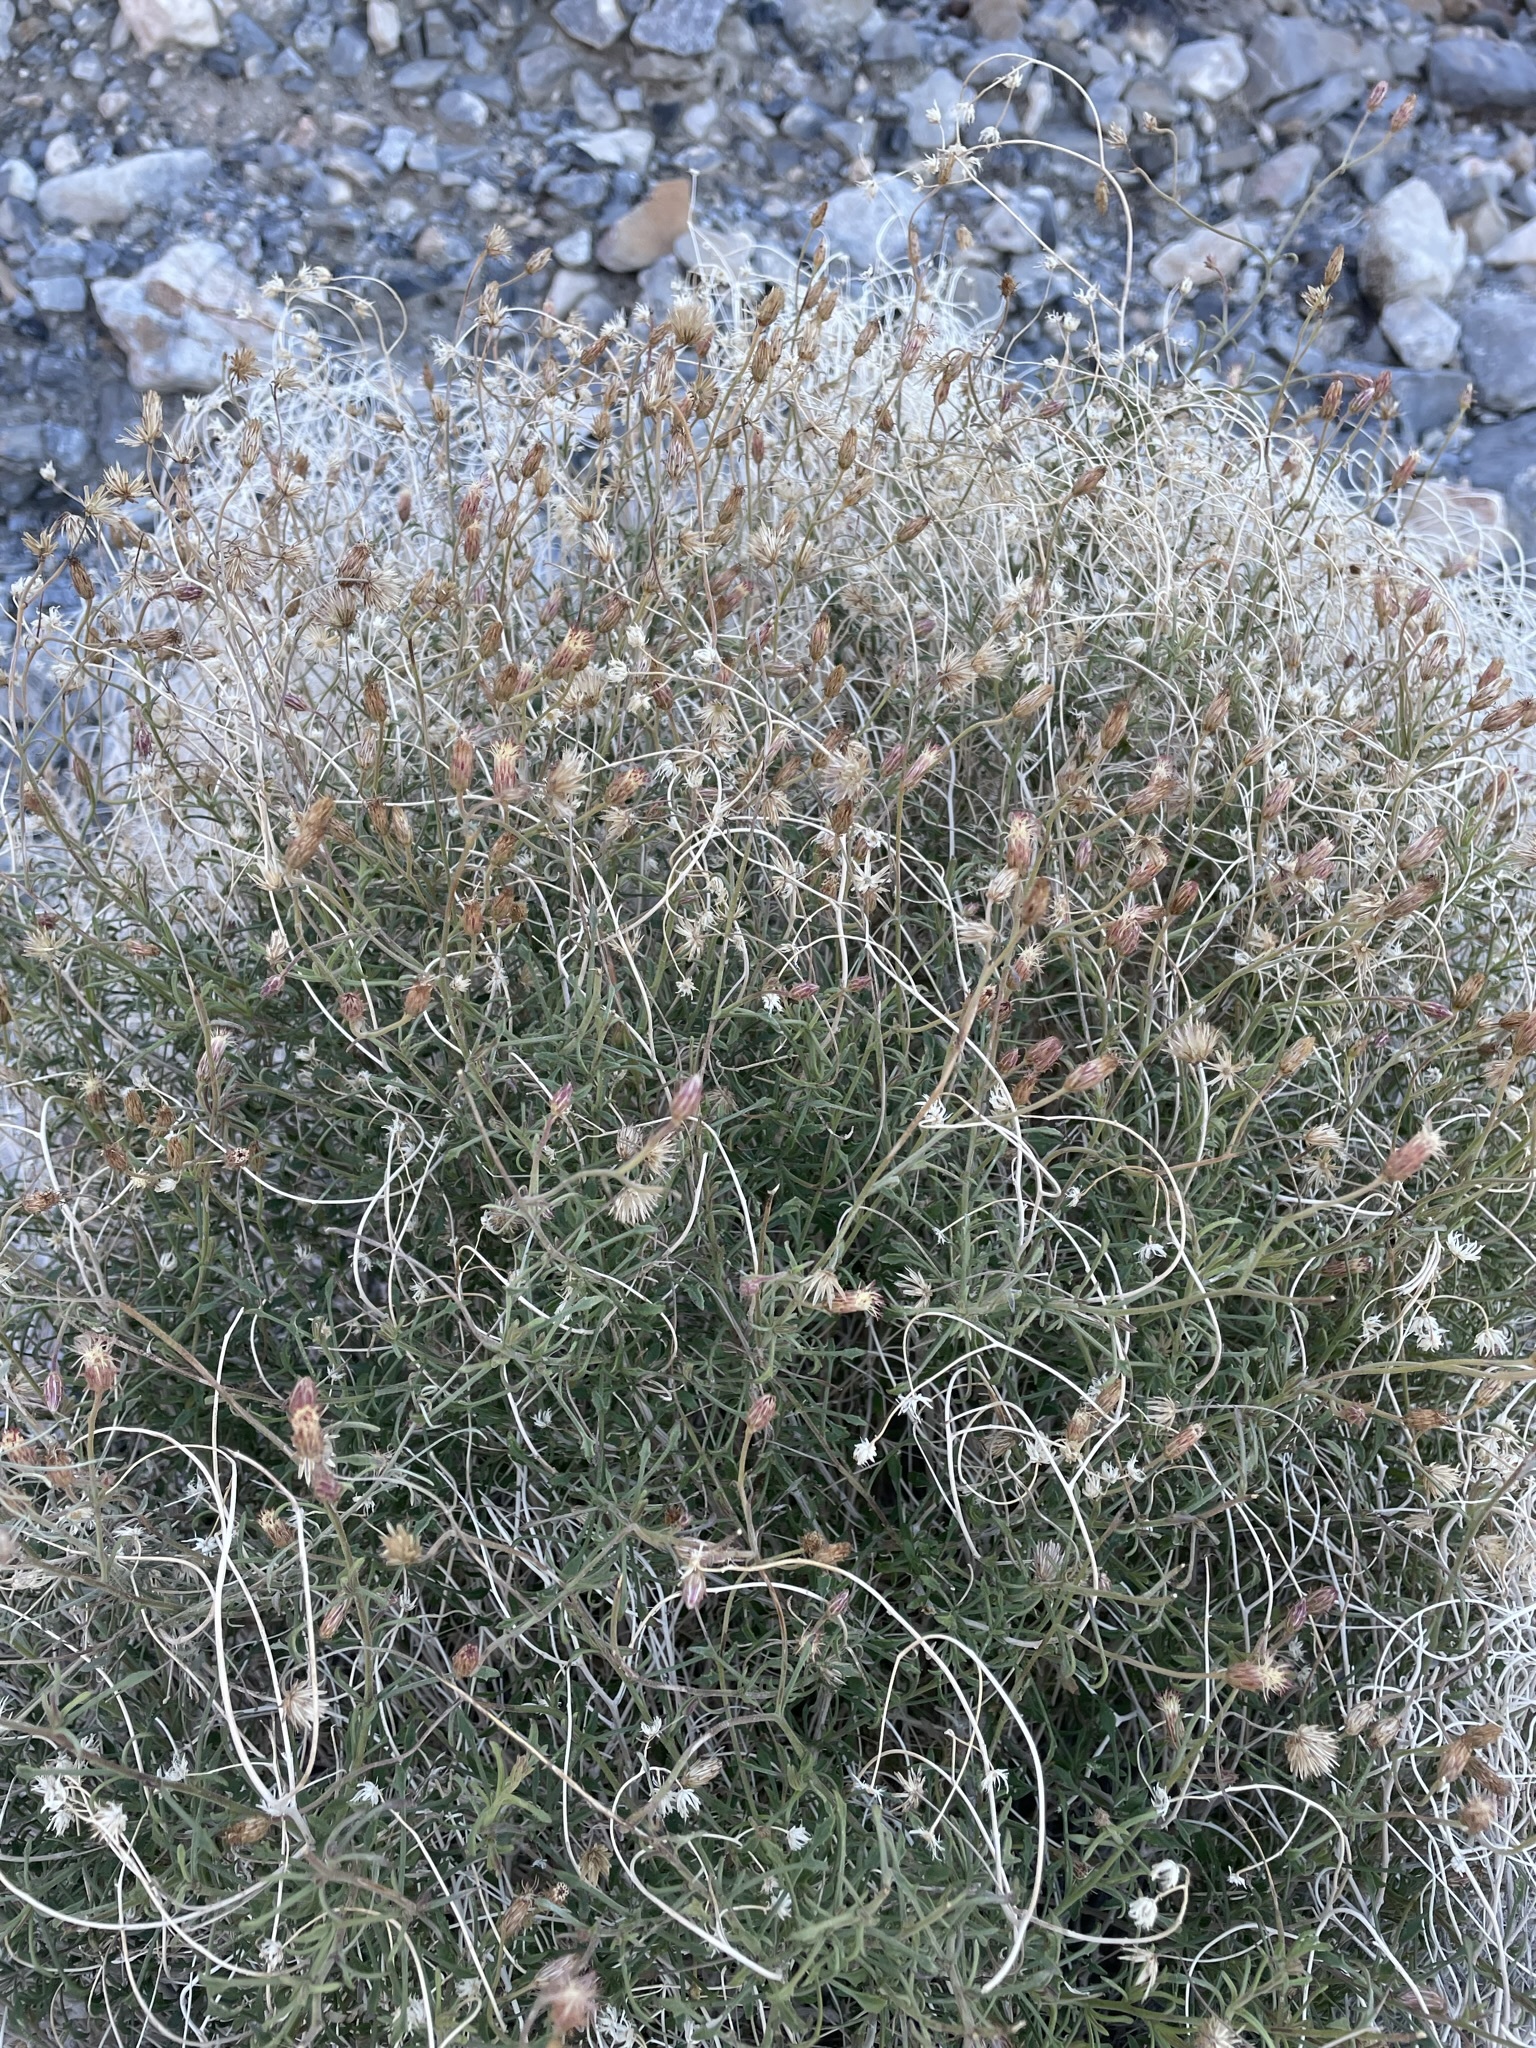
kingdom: Plantae
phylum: Tracheophyta
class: Magnoliopsida
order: Asterales
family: Asteraceae
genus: Pleurocoronis
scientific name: Pleurocoronis pluriseta
